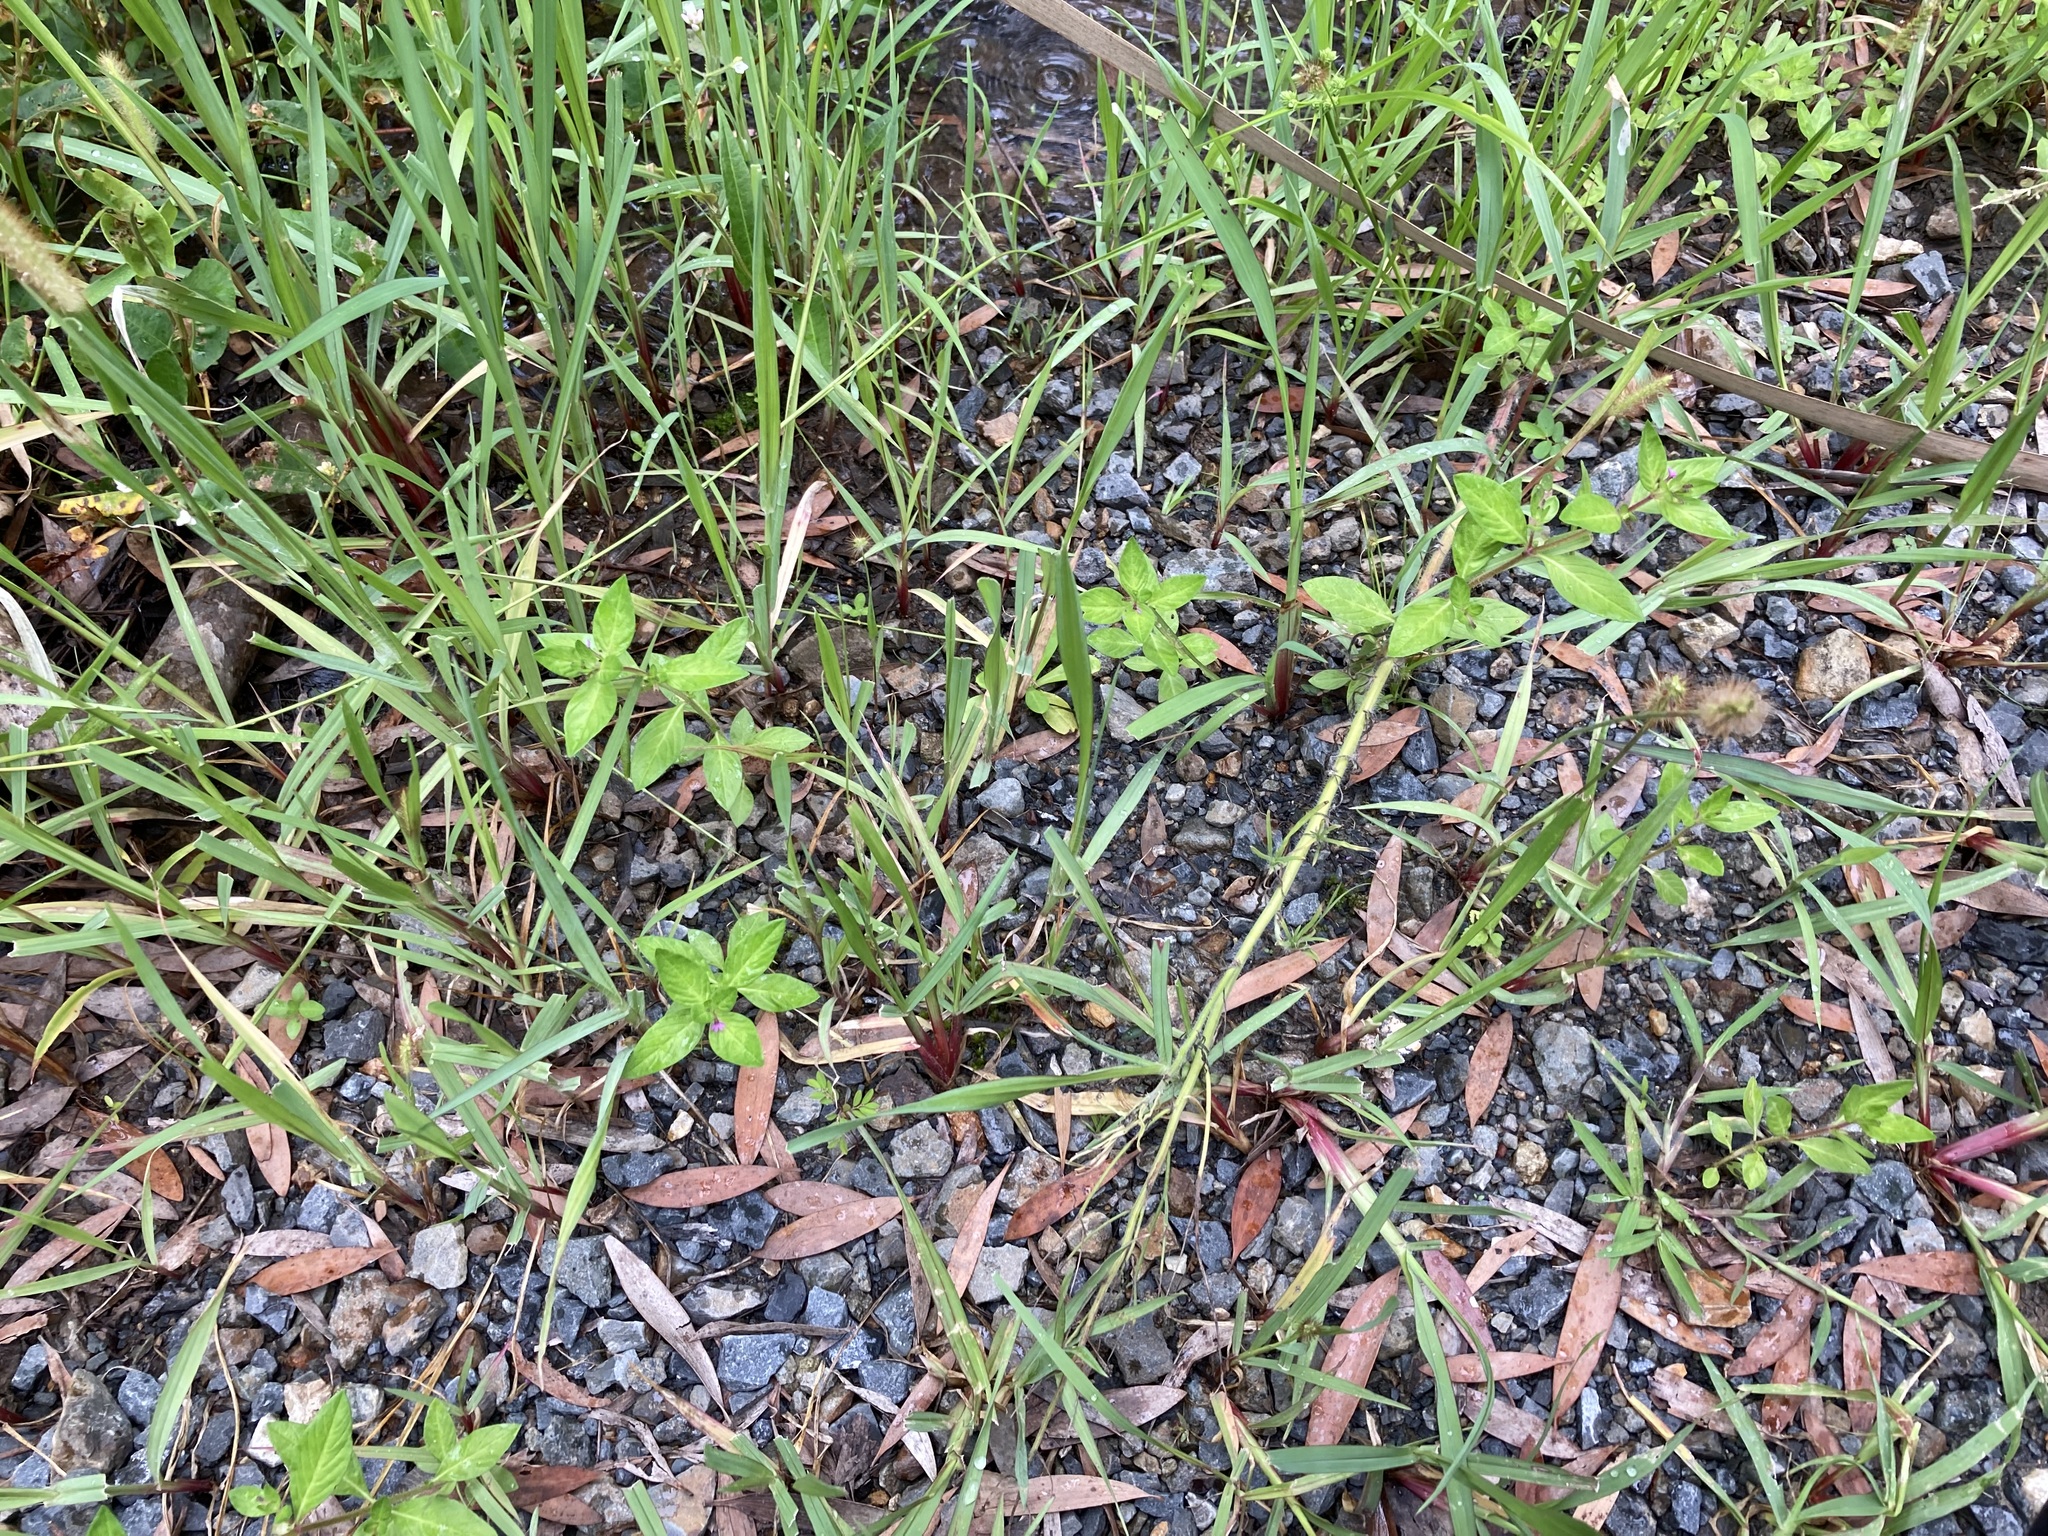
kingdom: Plantae
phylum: Tracheophyta
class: Magnoliopsida
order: Myrtales
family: Lythraceae
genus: Cuphea
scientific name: Cuphea carthagenensis
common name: Colombian waxweed
